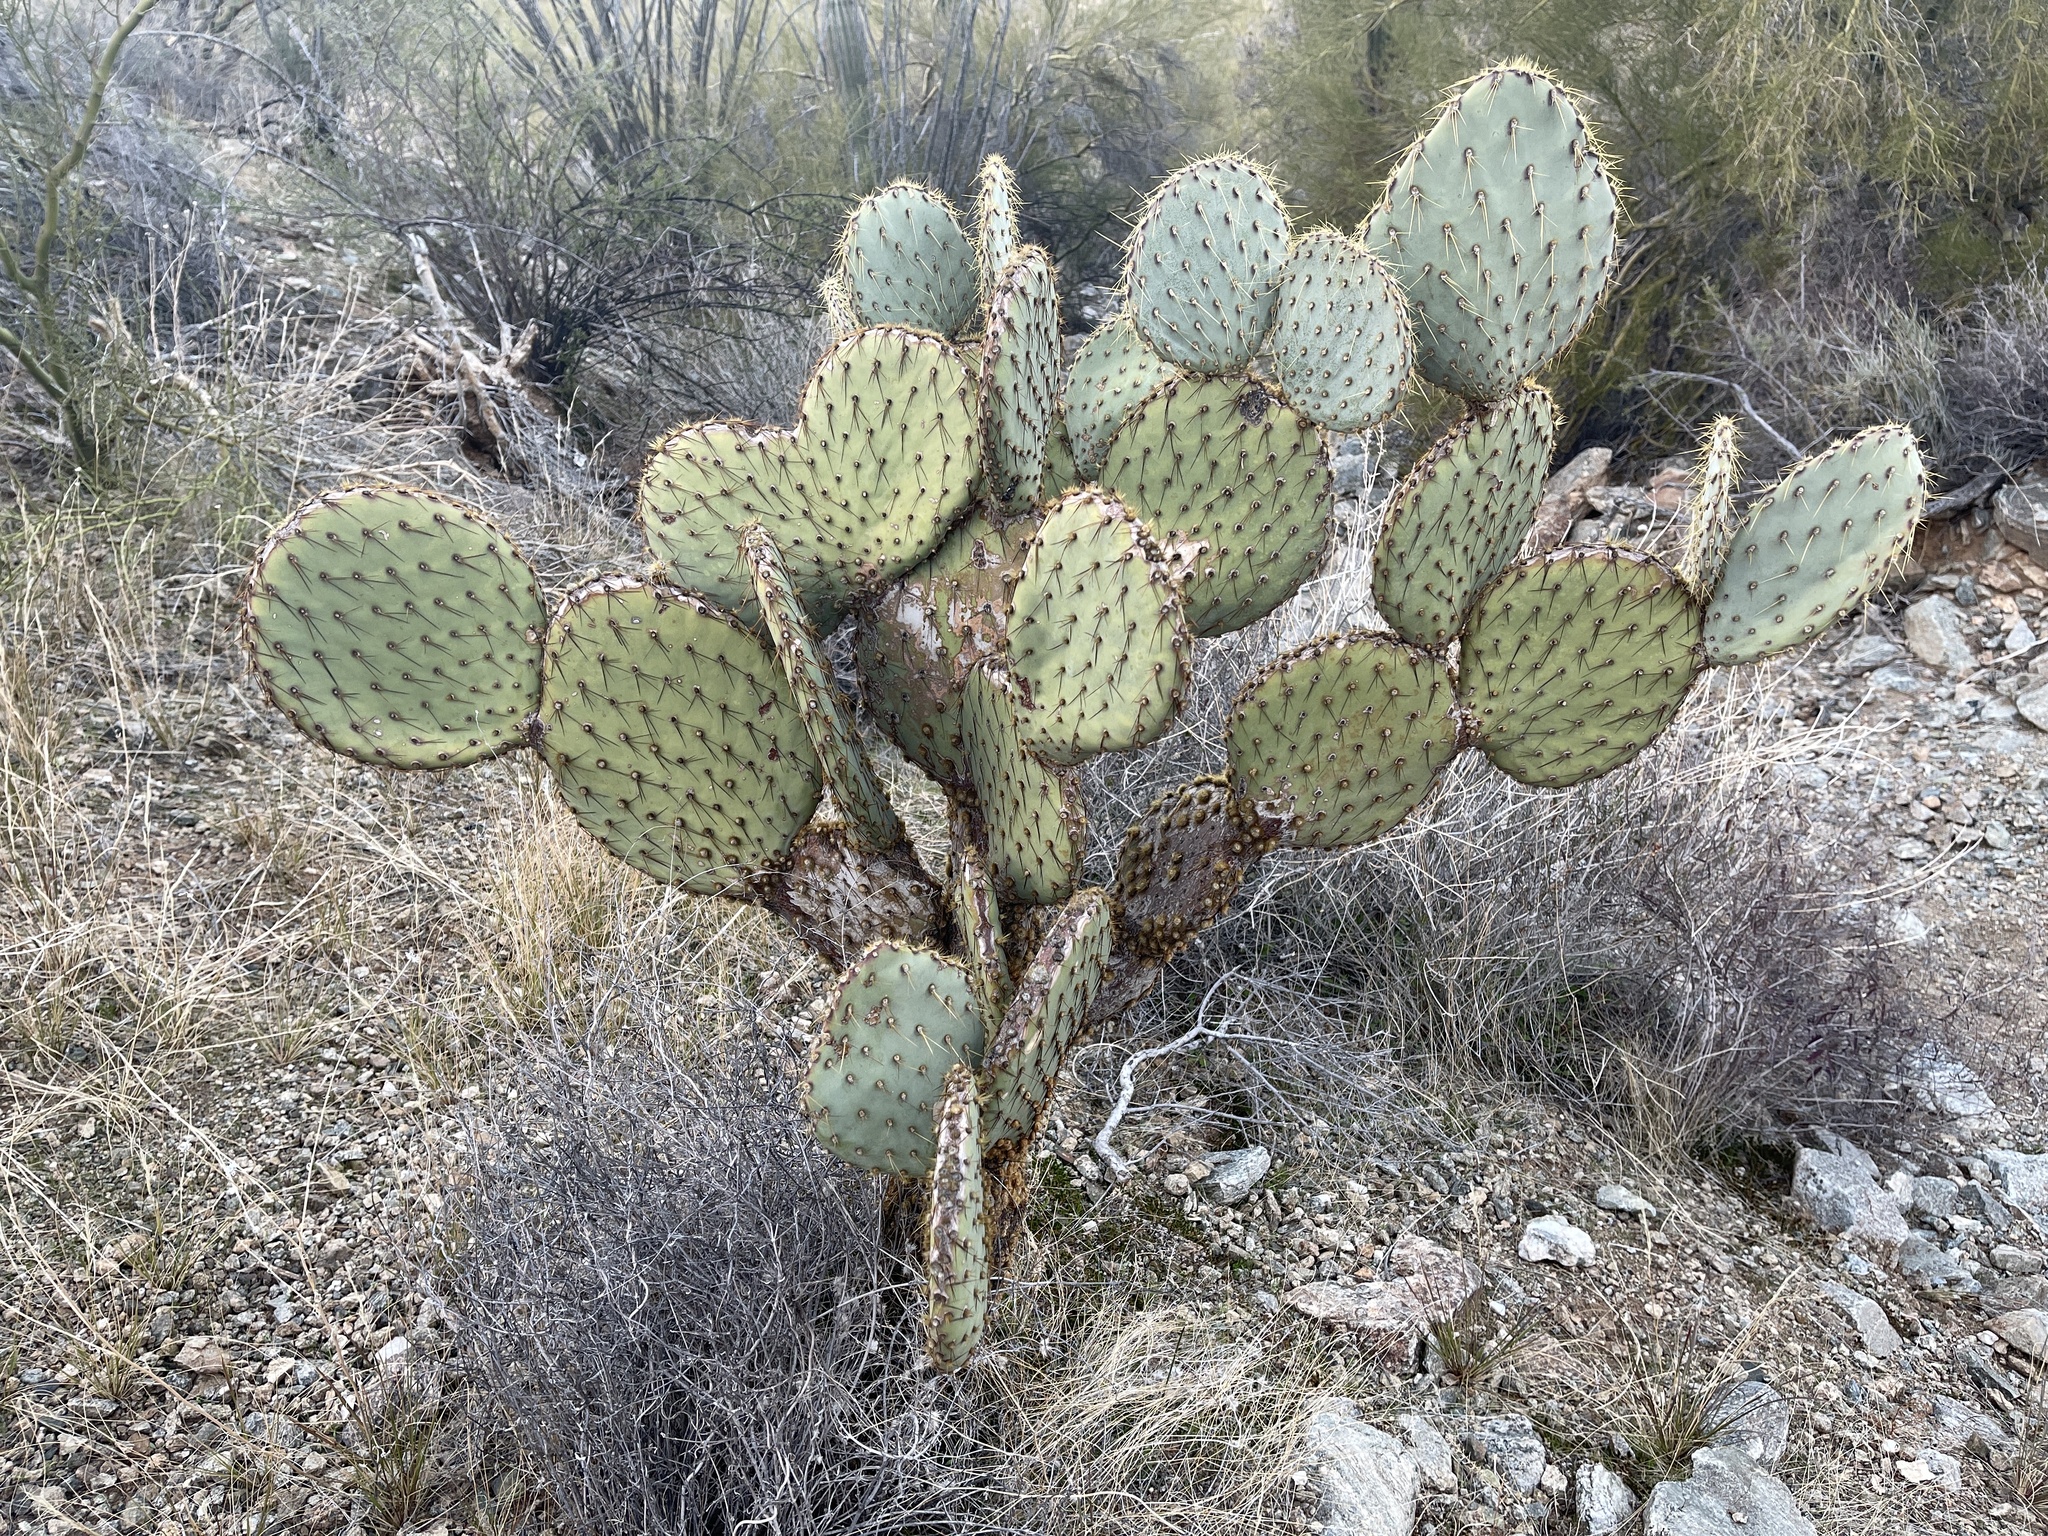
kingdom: Plantae
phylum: Tracheophyta
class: Magnoliopsida
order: Caryophyllales
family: Cactaceae
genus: Opuntia
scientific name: Opuntia chlorotica
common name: Dollar-joint prickly-pear
